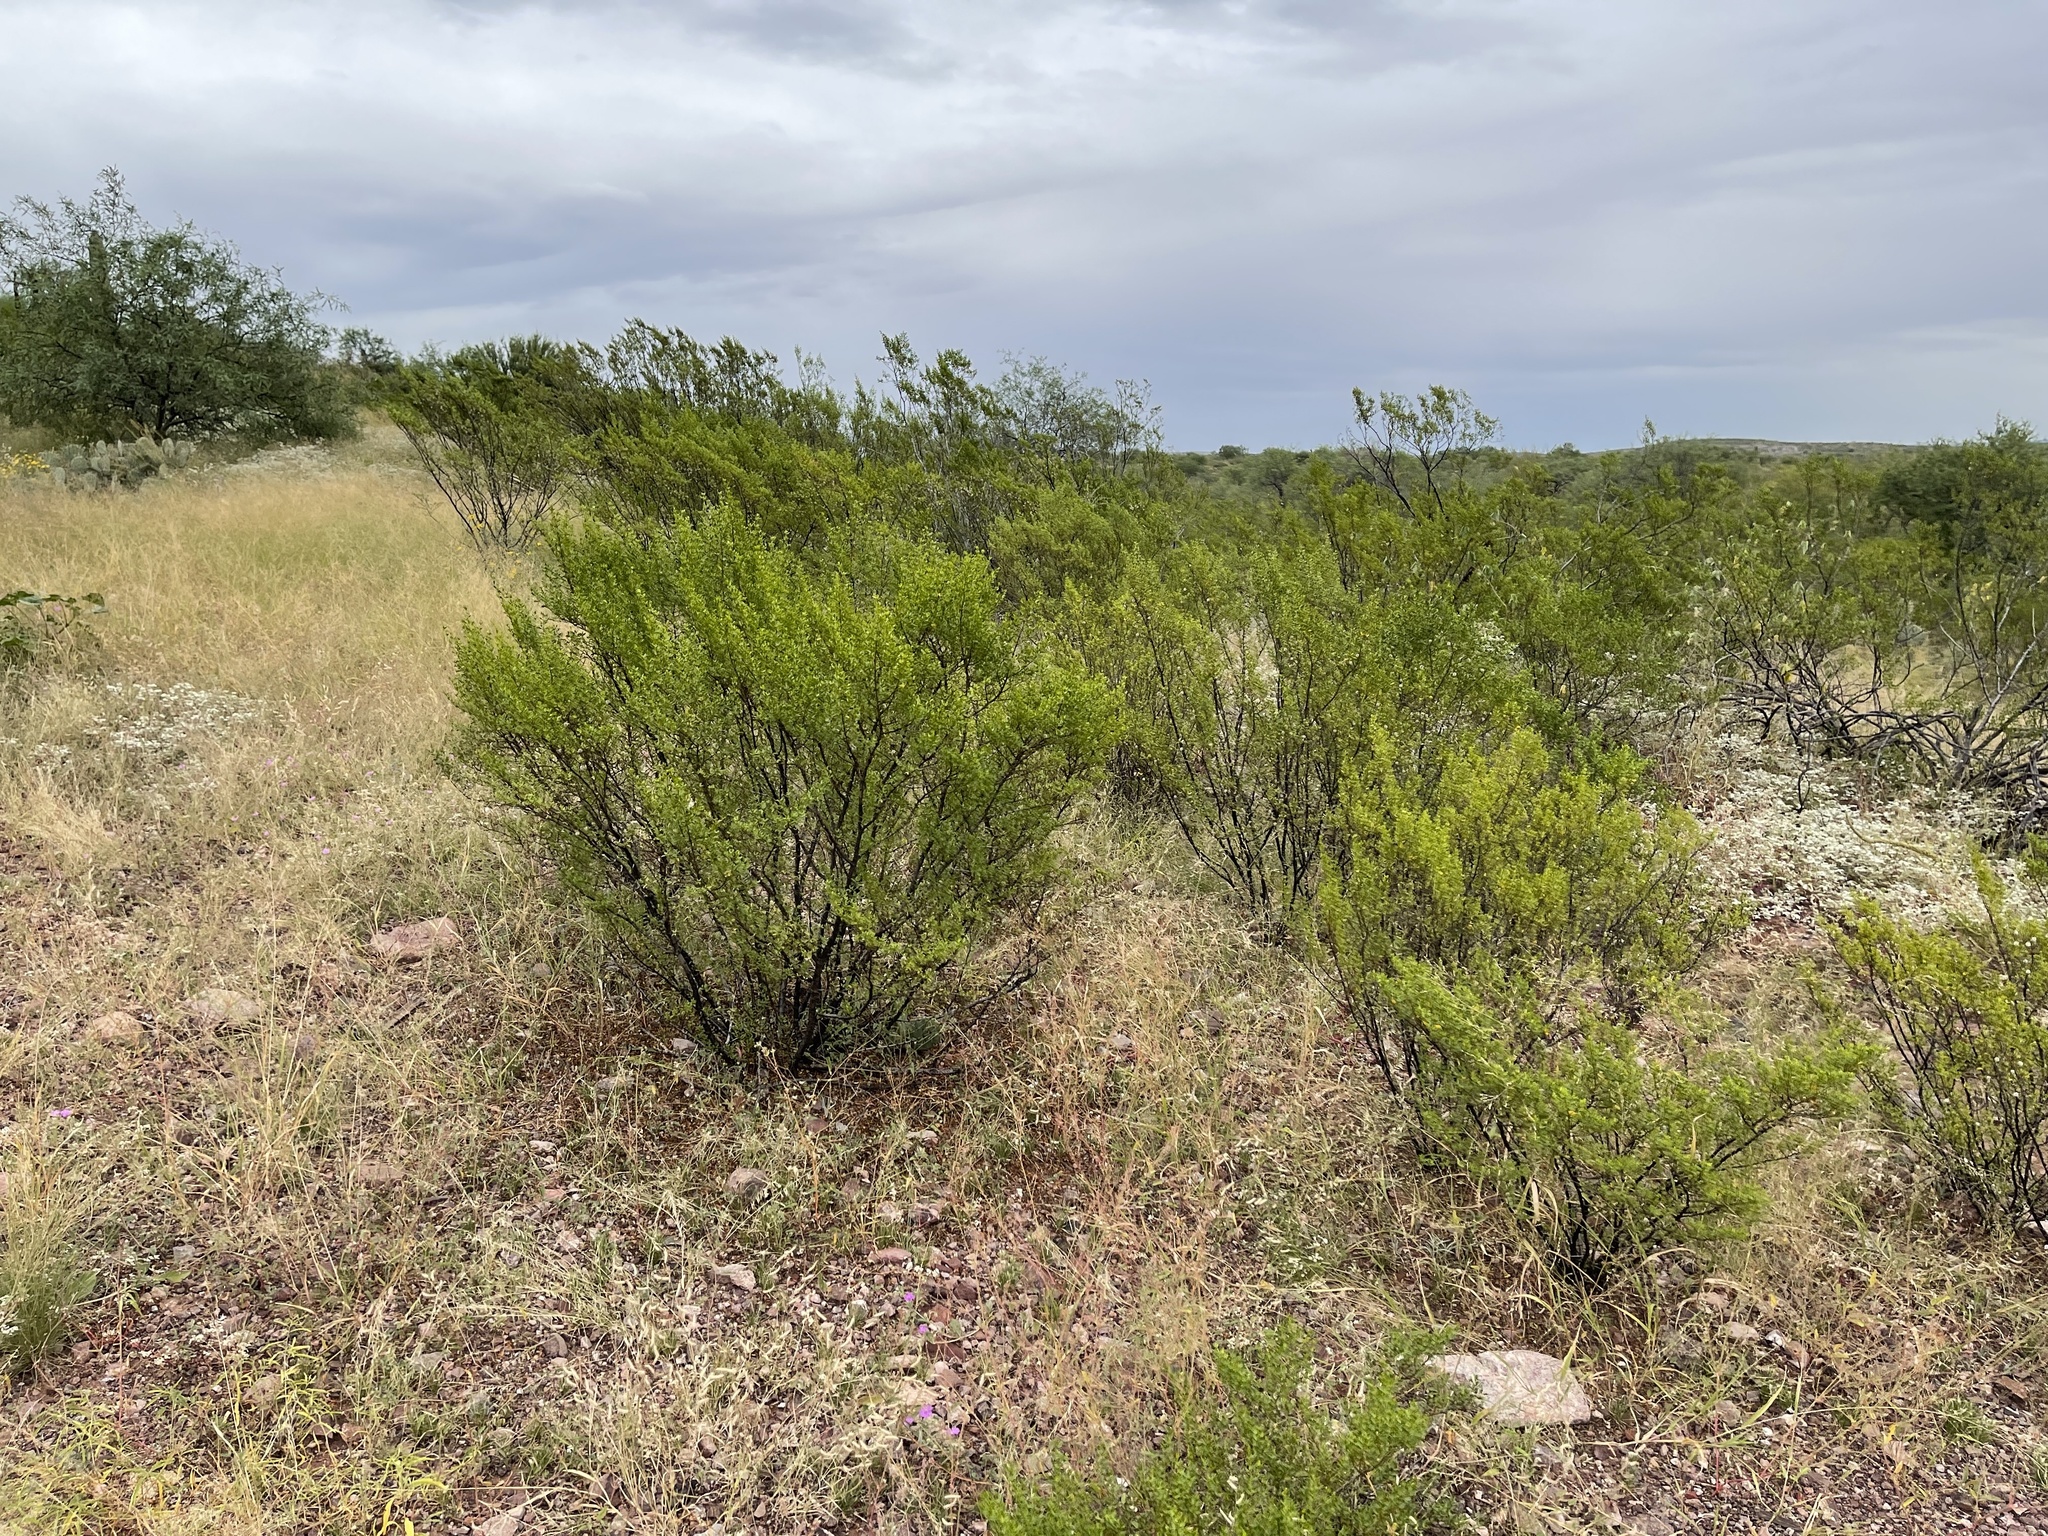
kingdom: Plantae
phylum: Tracheophyta
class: Magnoliopsida
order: Zygophyllales
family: Zygophyllaceae
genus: Larrea
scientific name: Larrea tridentata
